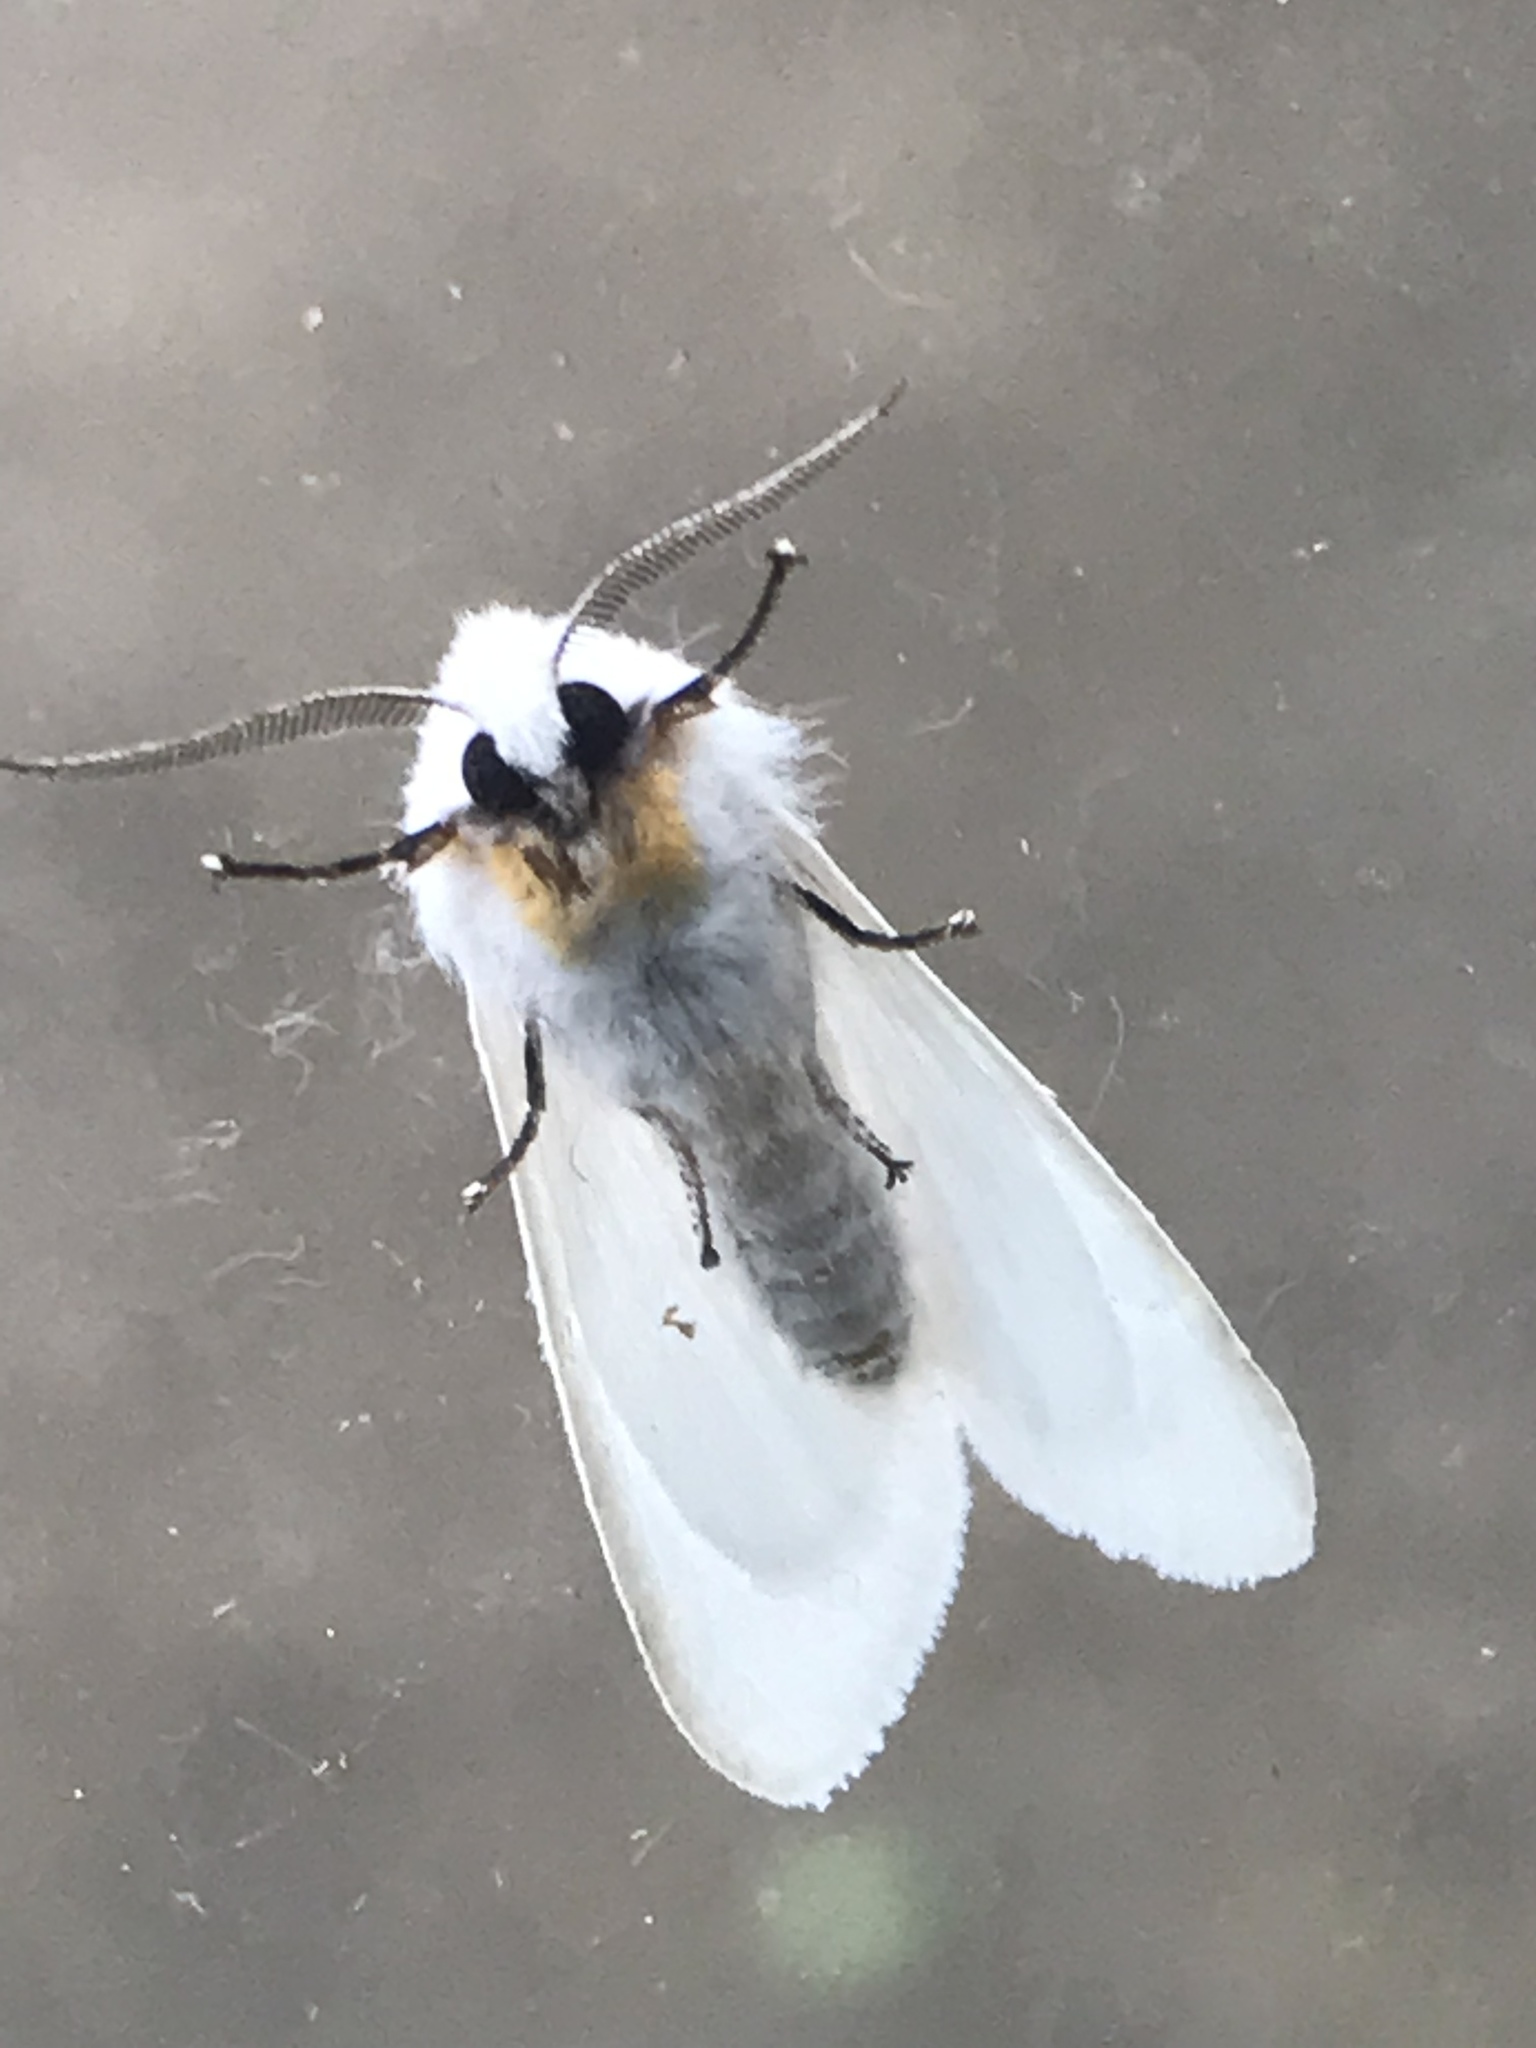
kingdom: Animalia
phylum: Arthropoda
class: Insecta
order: Lepidoptera
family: Erebidae
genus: Spilosoma
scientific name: Spilosoma congrua
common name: Agreeable tiger moth
